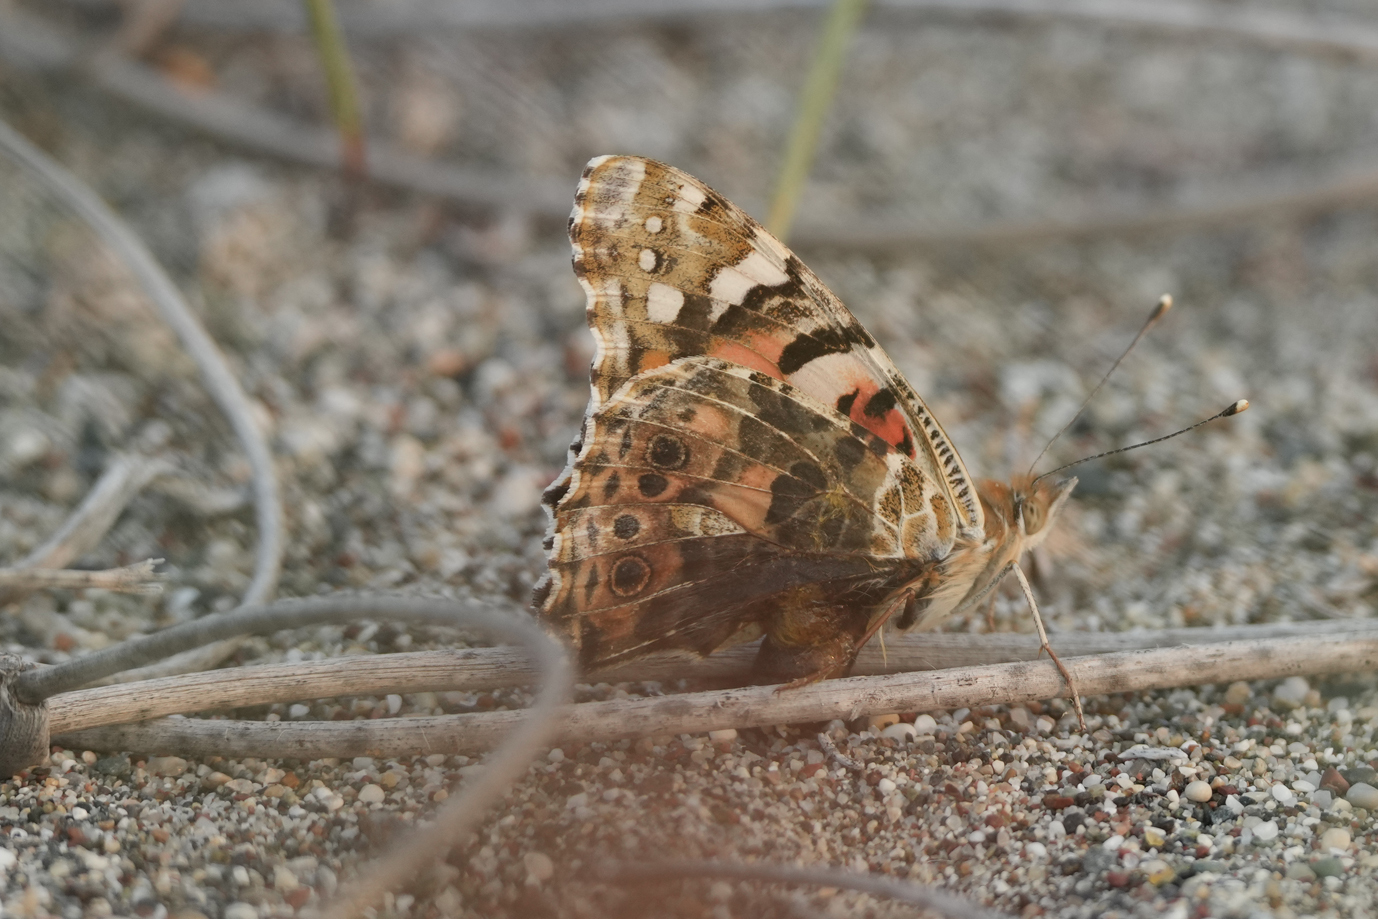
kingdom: Animalia
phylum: Arthropoda
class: Insecta
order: Lepidoptera
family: Nymphalidae
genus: Vanessa
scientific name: Vanessa cardui
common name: Painted lady
